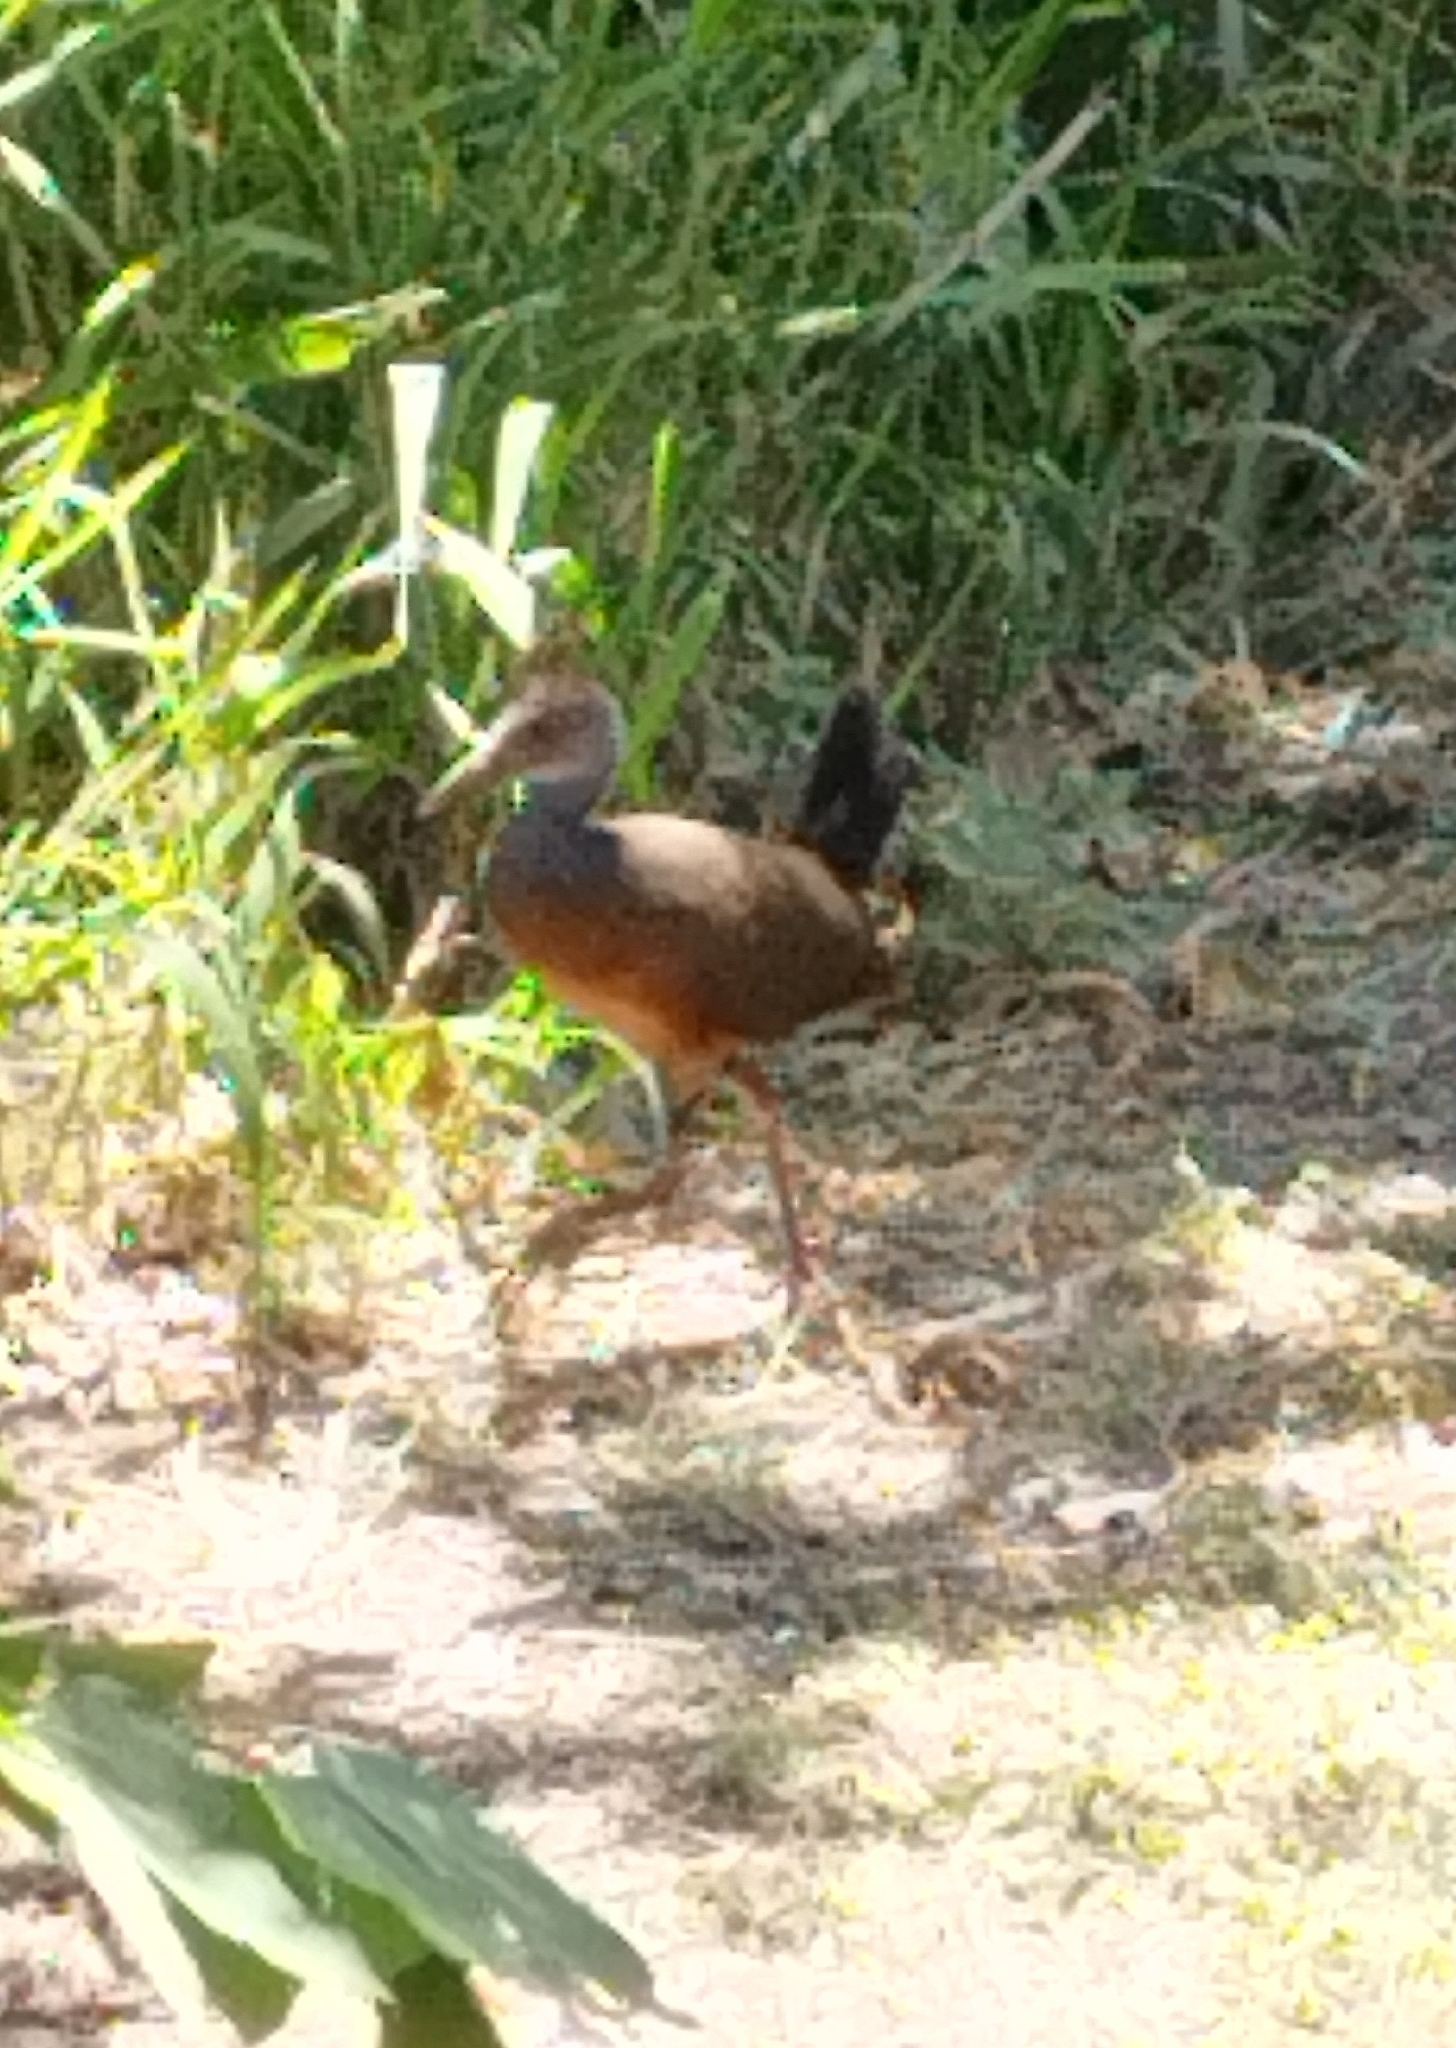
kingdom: Animalia
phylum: Chordata
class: Aves
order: Gruiformes
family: Rallidae
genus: Aramides
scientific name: Aramides cajanea
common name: Gray-necked wood-rail
